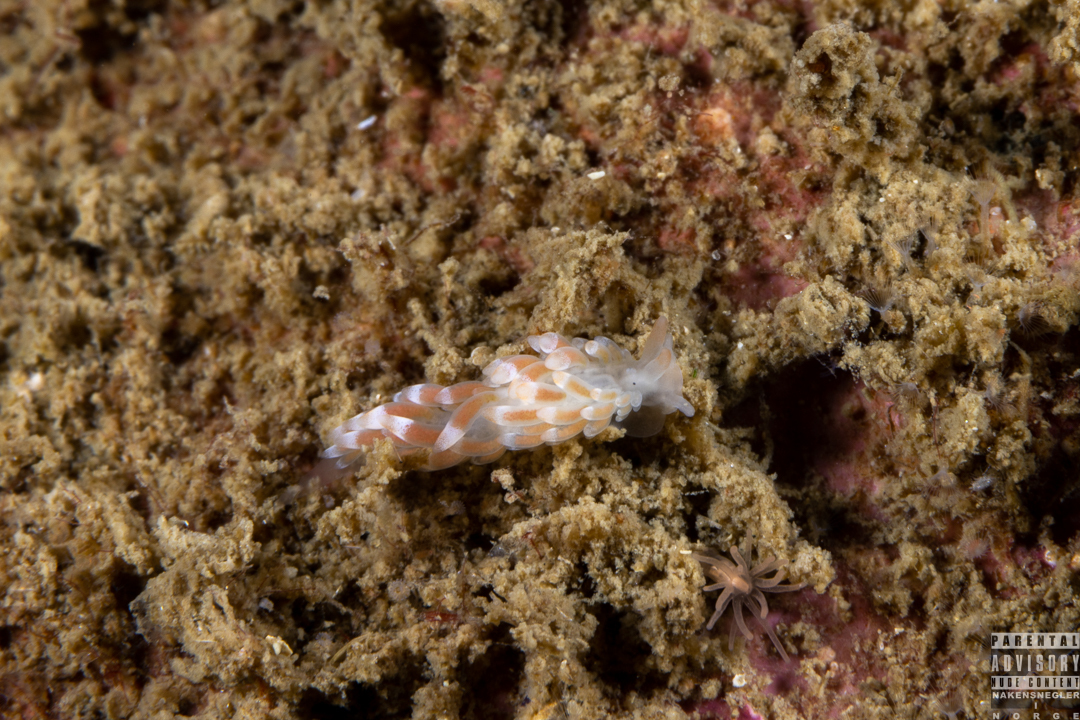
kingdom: Animalia
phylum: Mollusca
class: Gastropoda
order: Nudibranchia
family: Trinchesiidae
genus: Catriona
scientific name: Catriona aurantia
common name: Corange-tip cuthona
